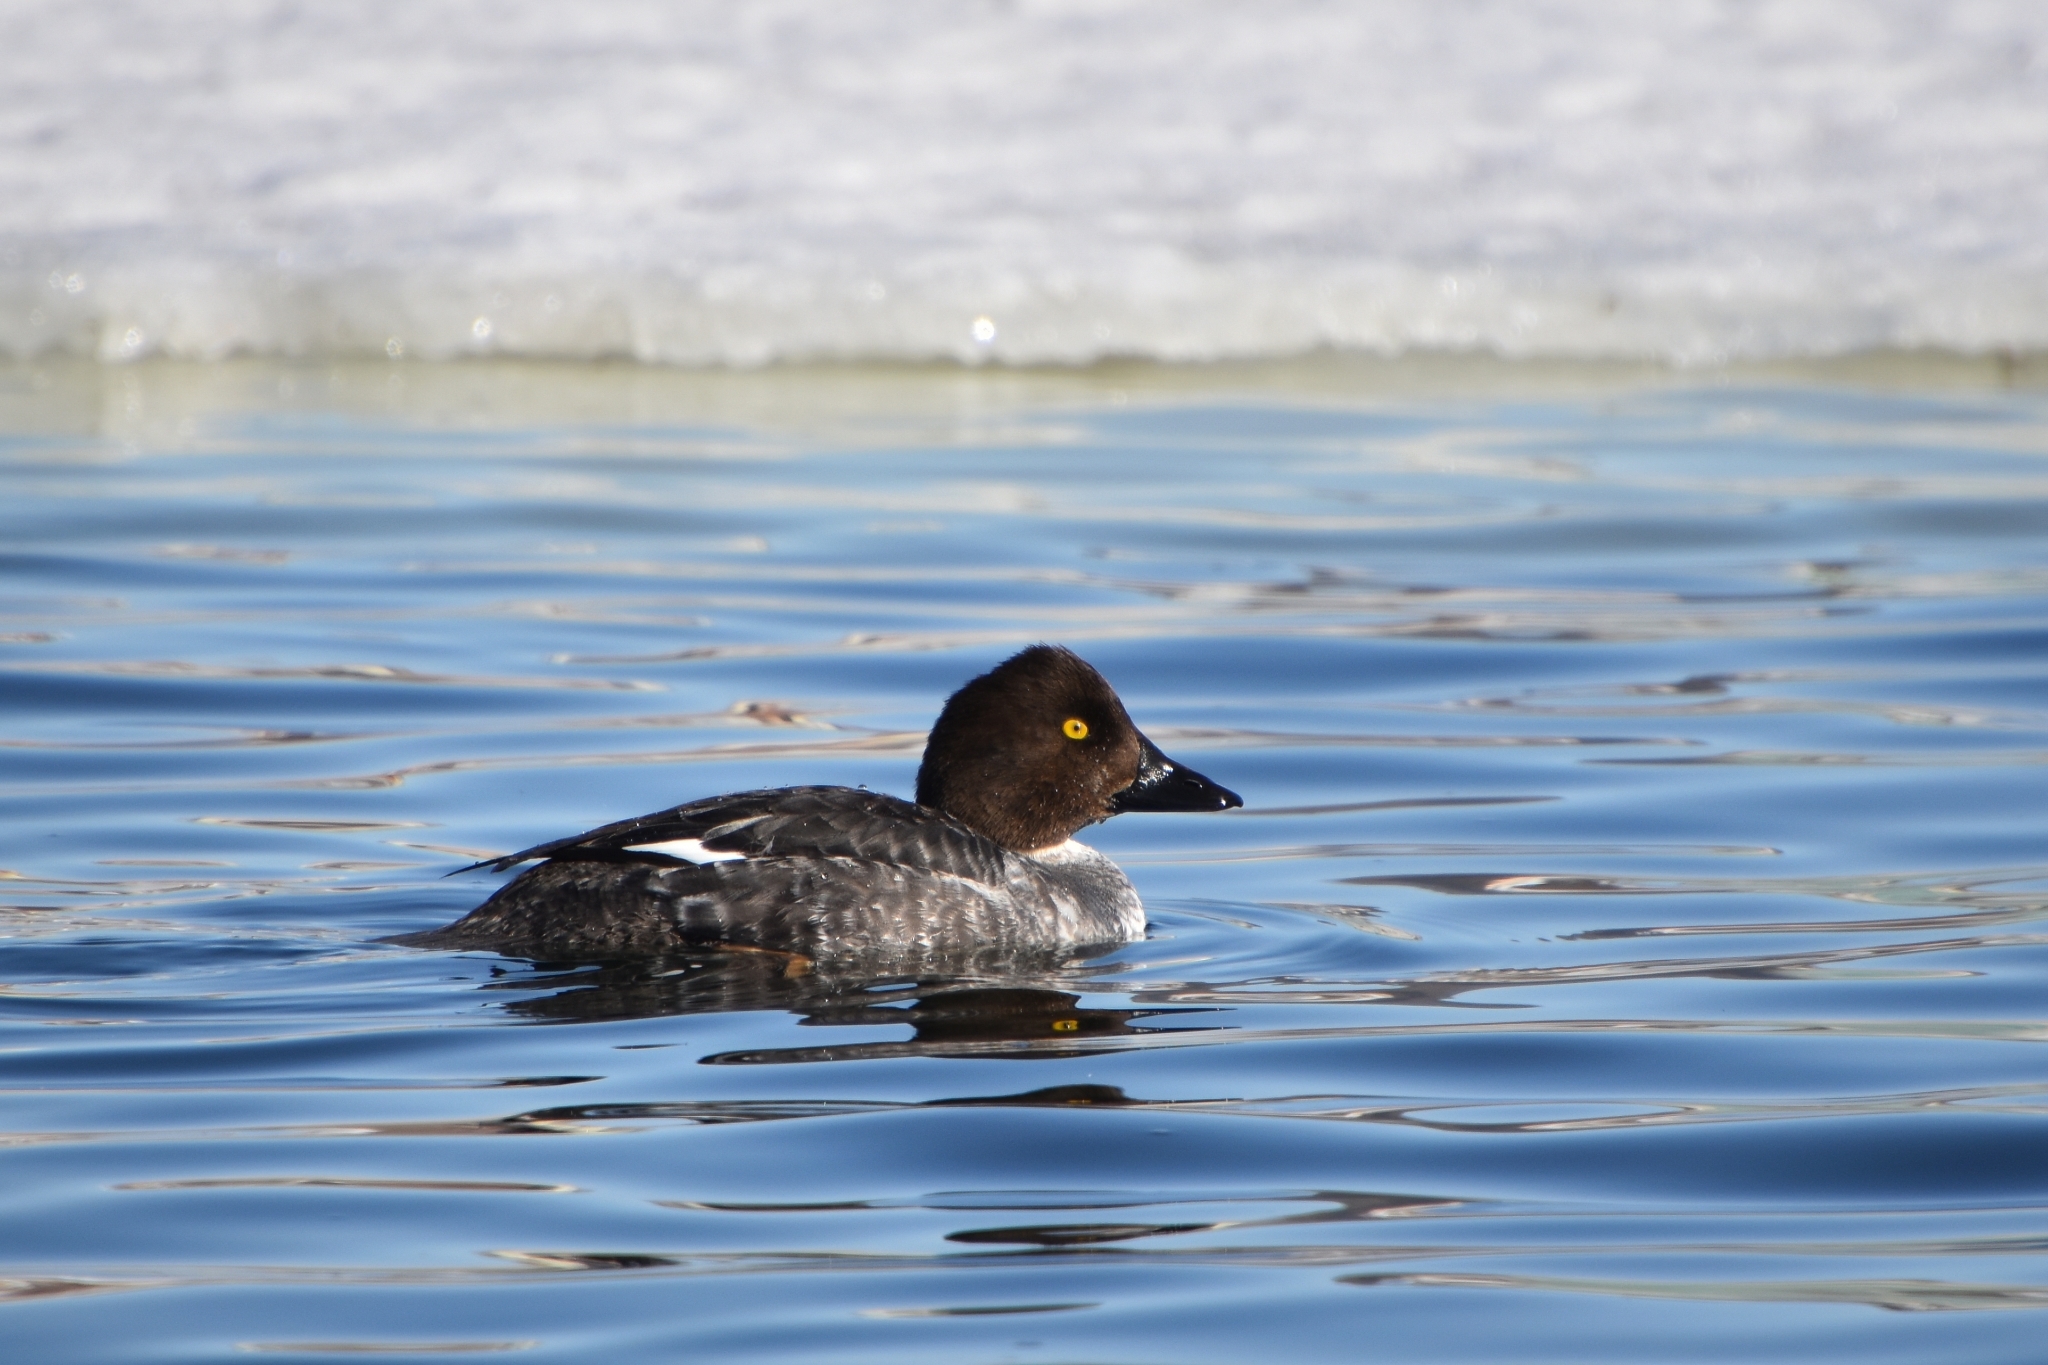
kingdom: Animalia
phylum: Chordata
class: Aves
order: Anseriformes
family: Anatidae
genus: Bucephala
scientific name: Bucephala clangula
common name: Common goldeneye
